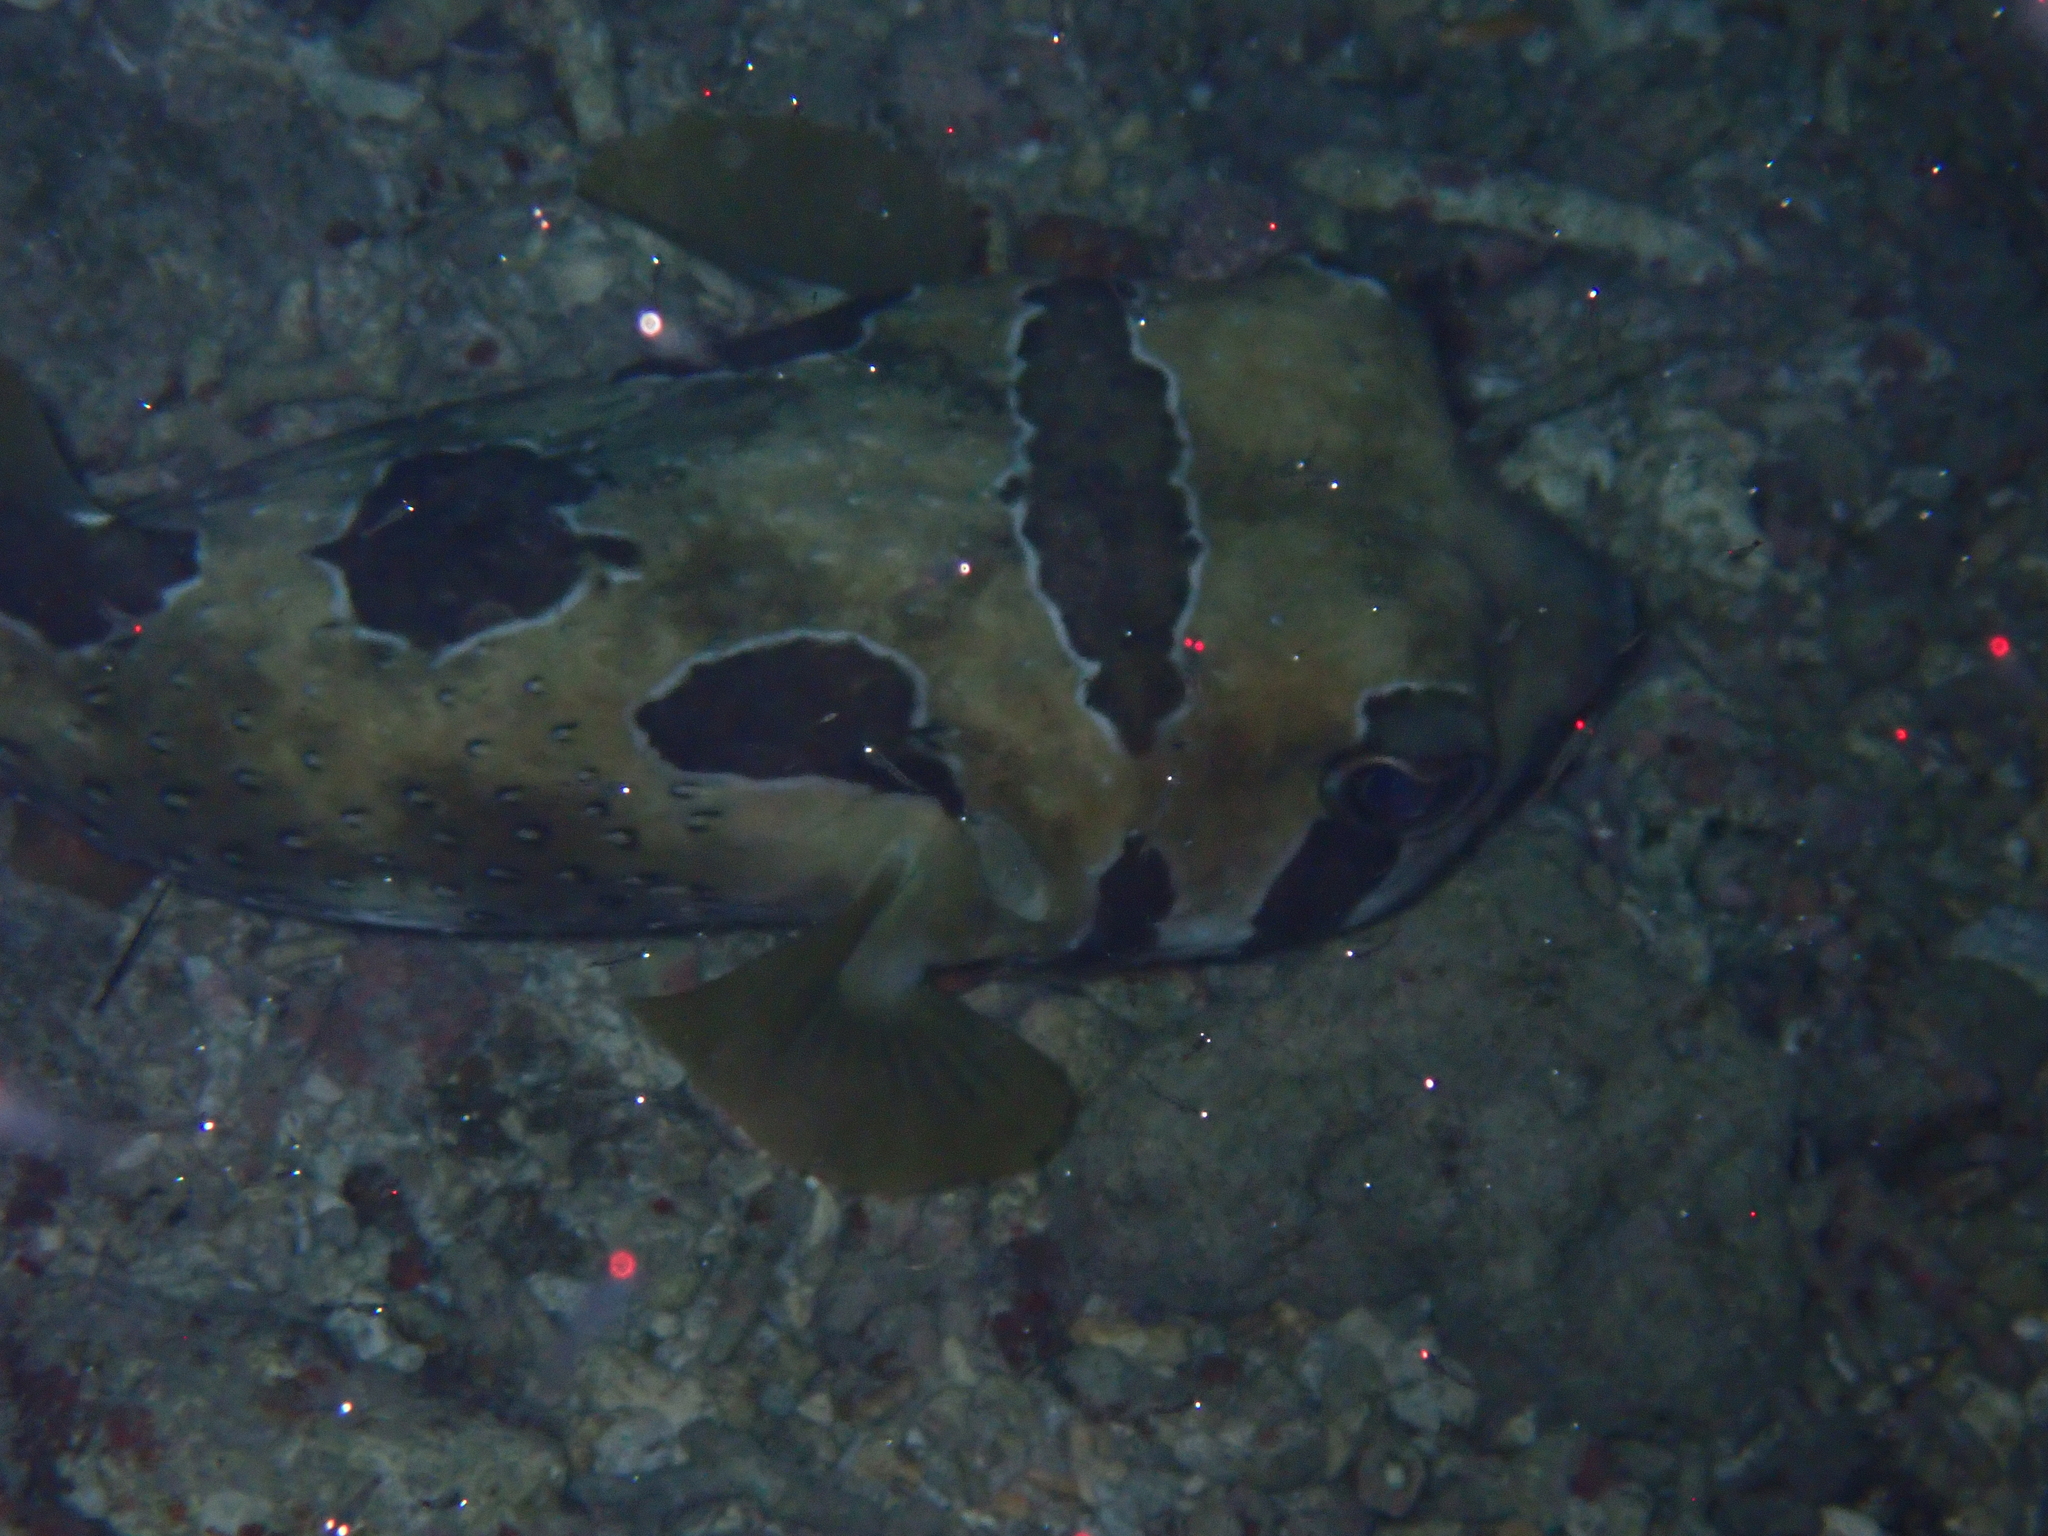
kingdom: Animalia
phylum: Chordata
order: Tetraodontiformes
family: Diodontidae
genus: Diodon
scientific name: Diodon liturosus
